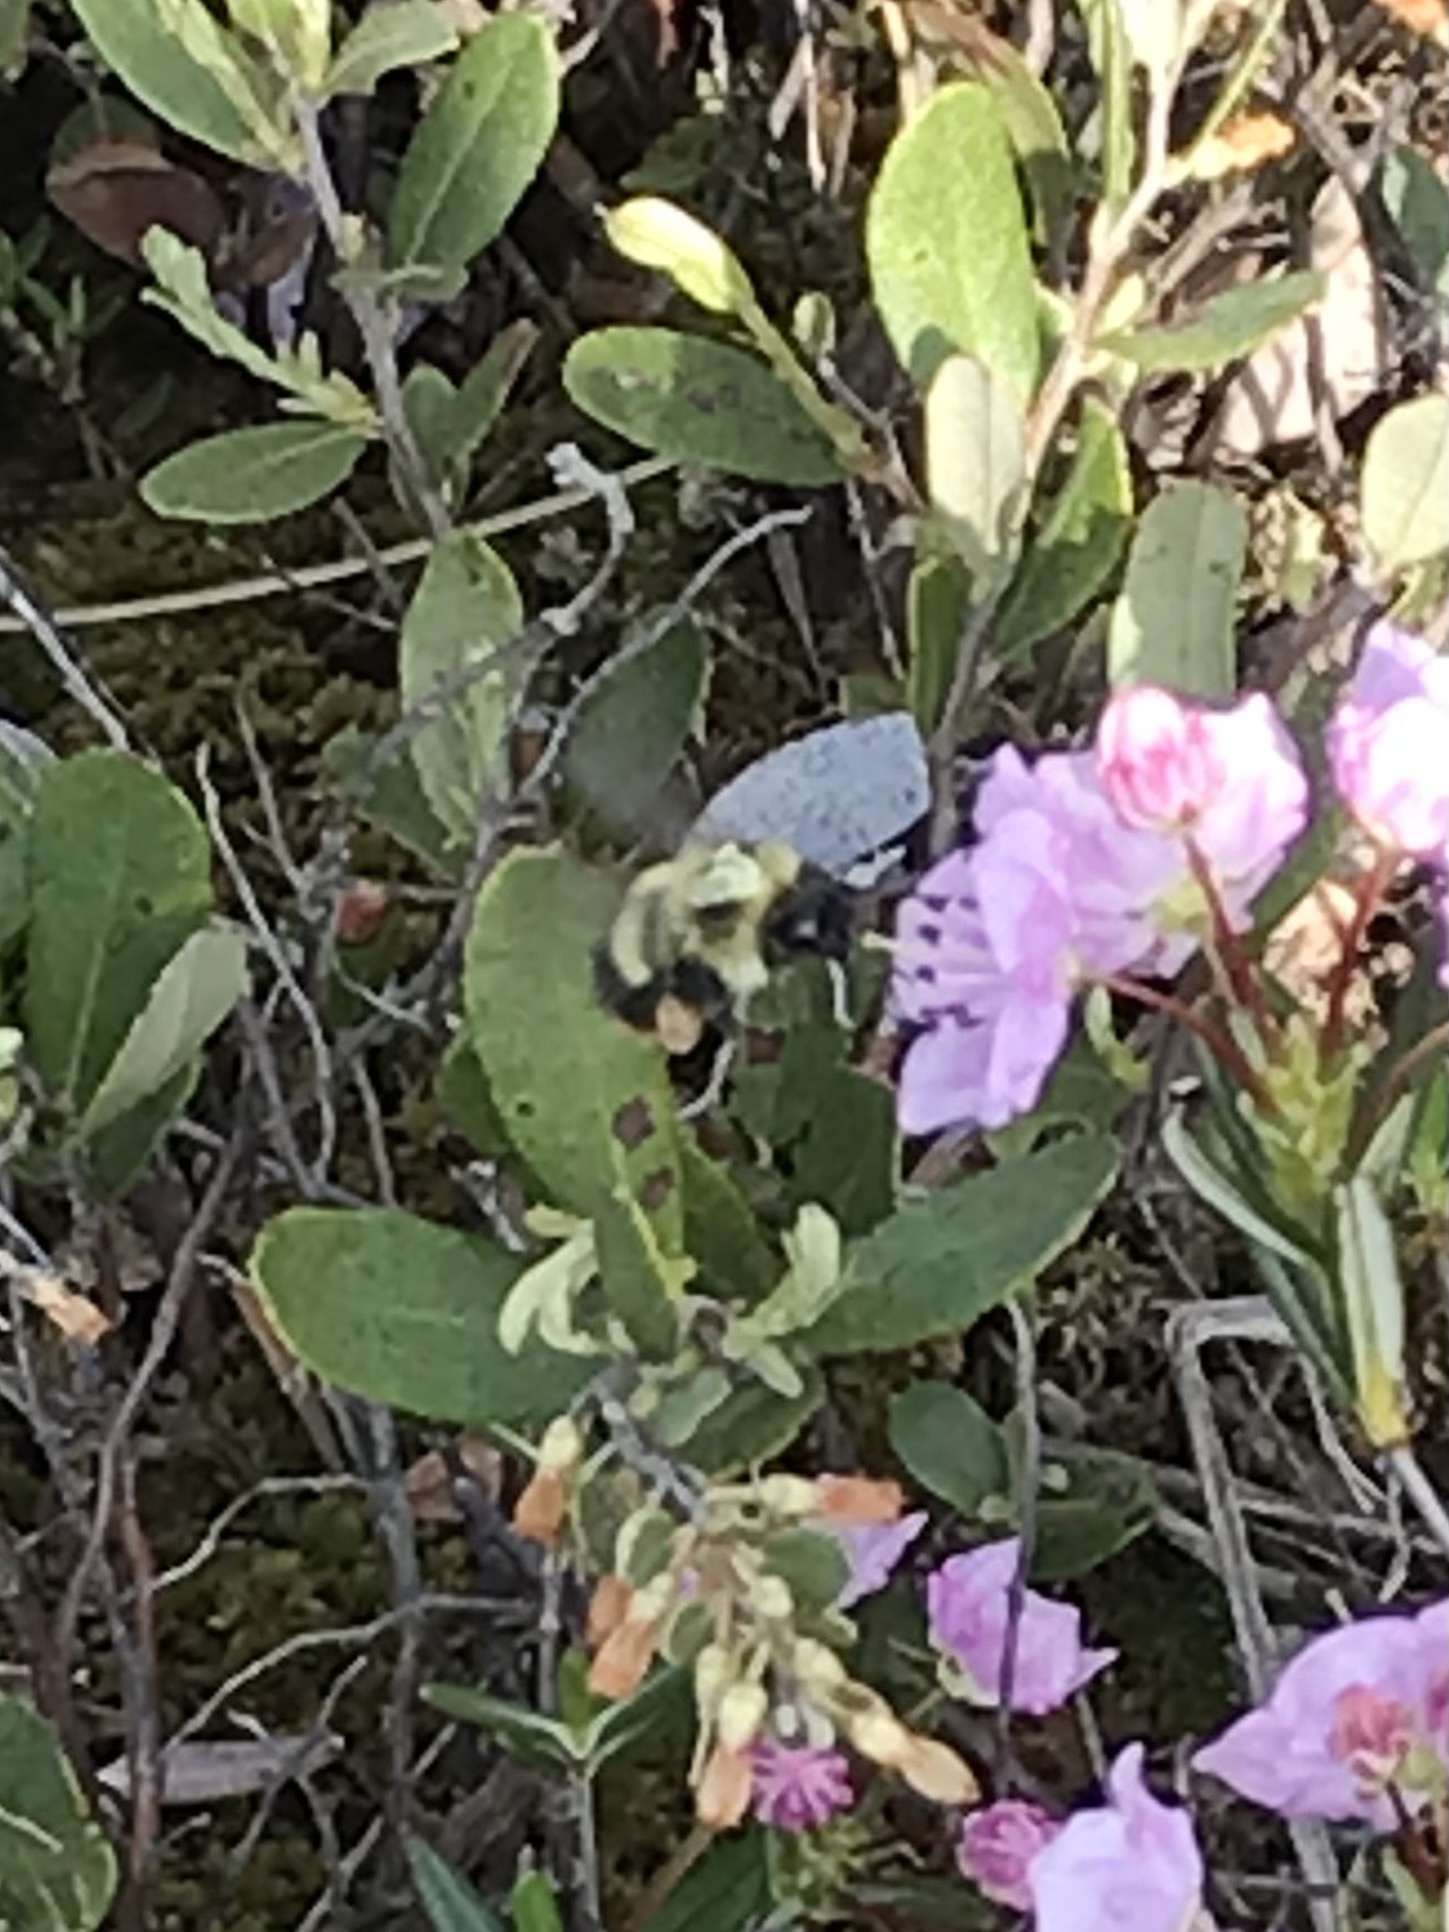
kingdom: Animalia
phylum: Arthropoda
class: Insecta
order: Hymenoptera
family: Apidae
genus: Bombus
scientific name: Bombus frigidus
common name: Frigid bumble bee
